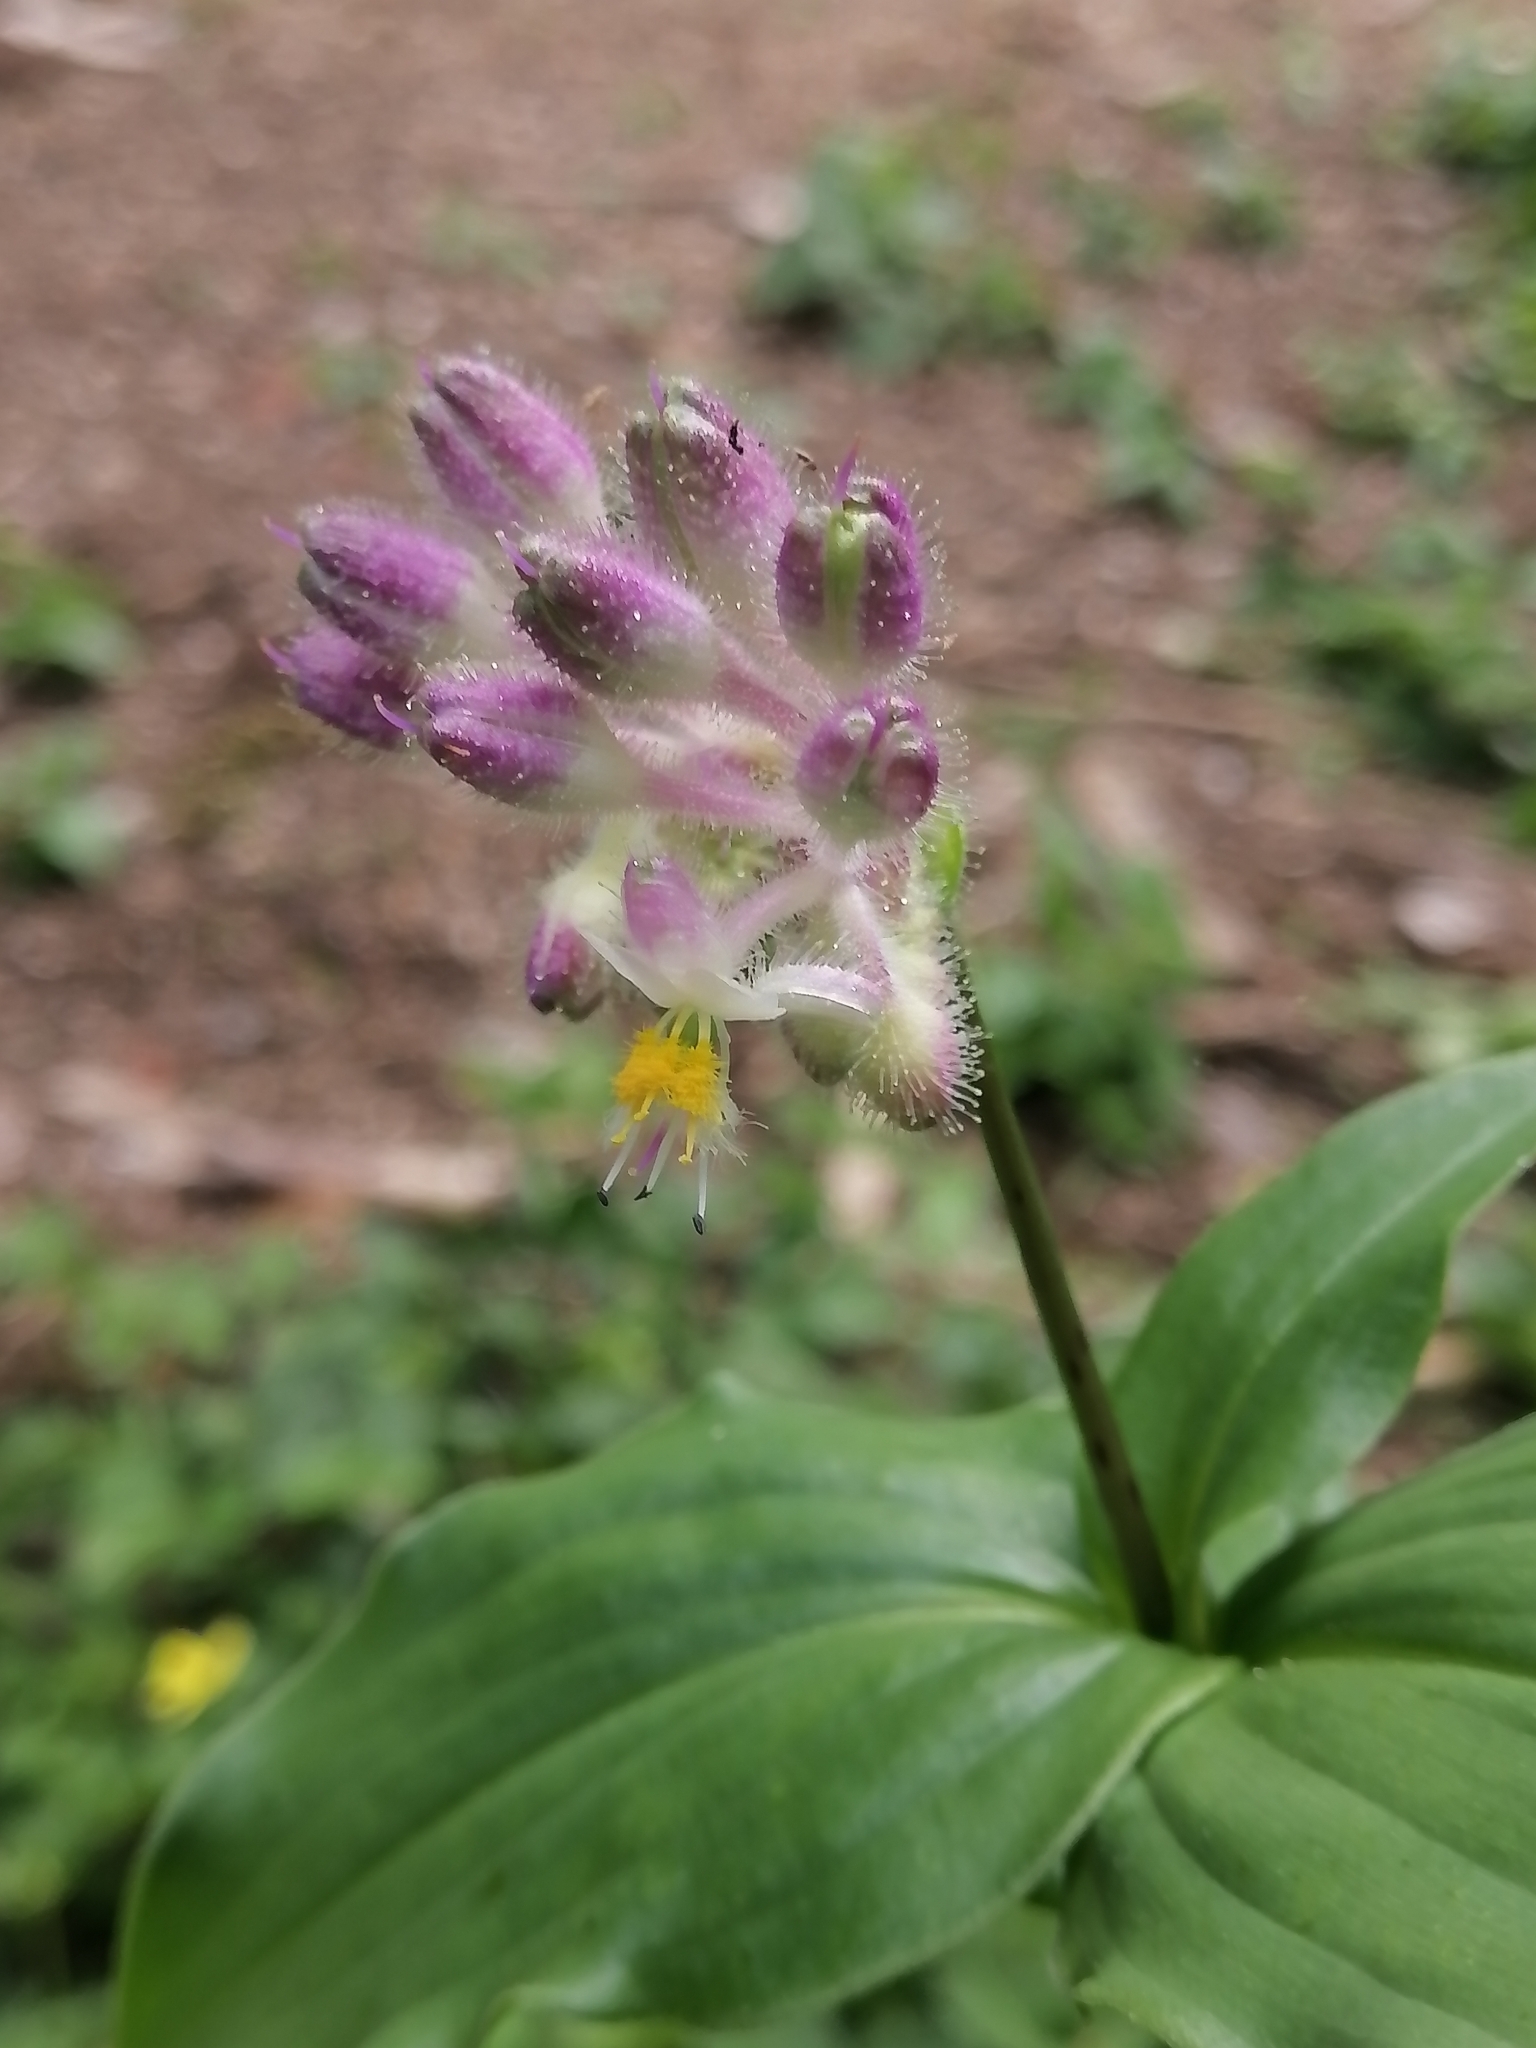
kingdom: Plantae
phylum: Tracheophyta
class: Liliopsida
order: Commelinales
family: Commelinaceae
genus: Tinantia
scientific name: Tinantia violacea
